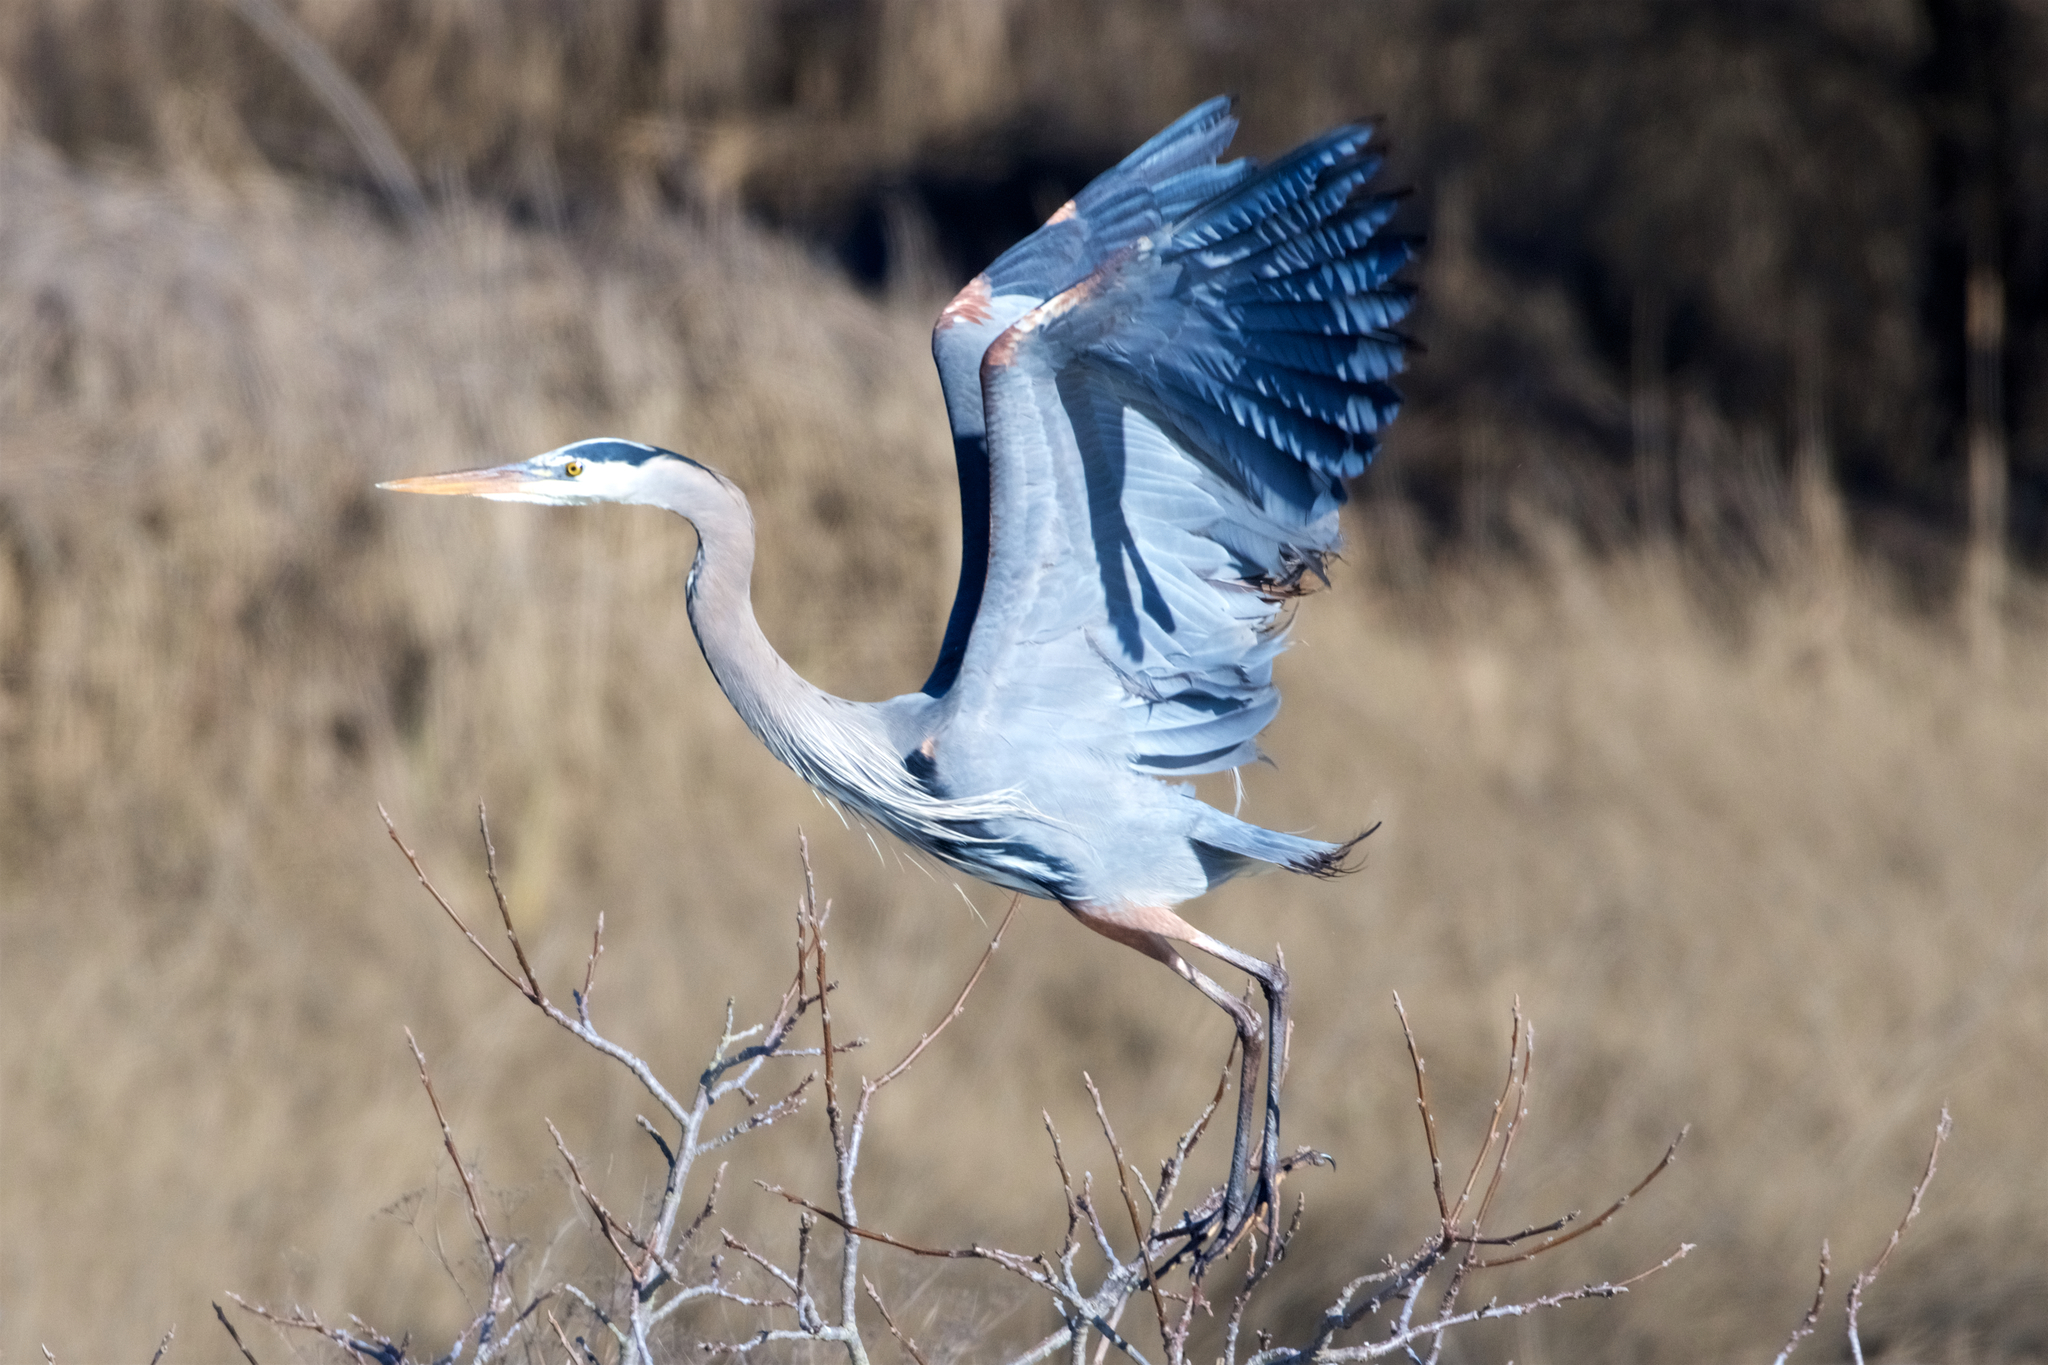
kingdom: Animalia
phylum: Chordata
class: Aves
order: Pelecaniformes
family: Ardeidae
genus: Ardea
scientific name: Ardea herodias
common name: Great blue heron
